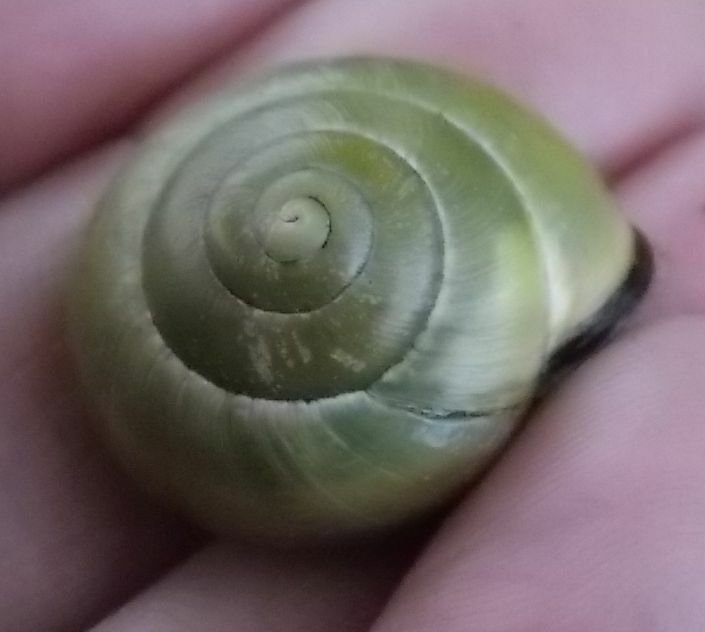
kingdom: Animalia
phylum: Mollusca
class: Gastropoda
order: Stylommatophora
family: Helicidae
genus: Cepaea
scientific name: Cepaea nemoralis
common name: Grovesnail
